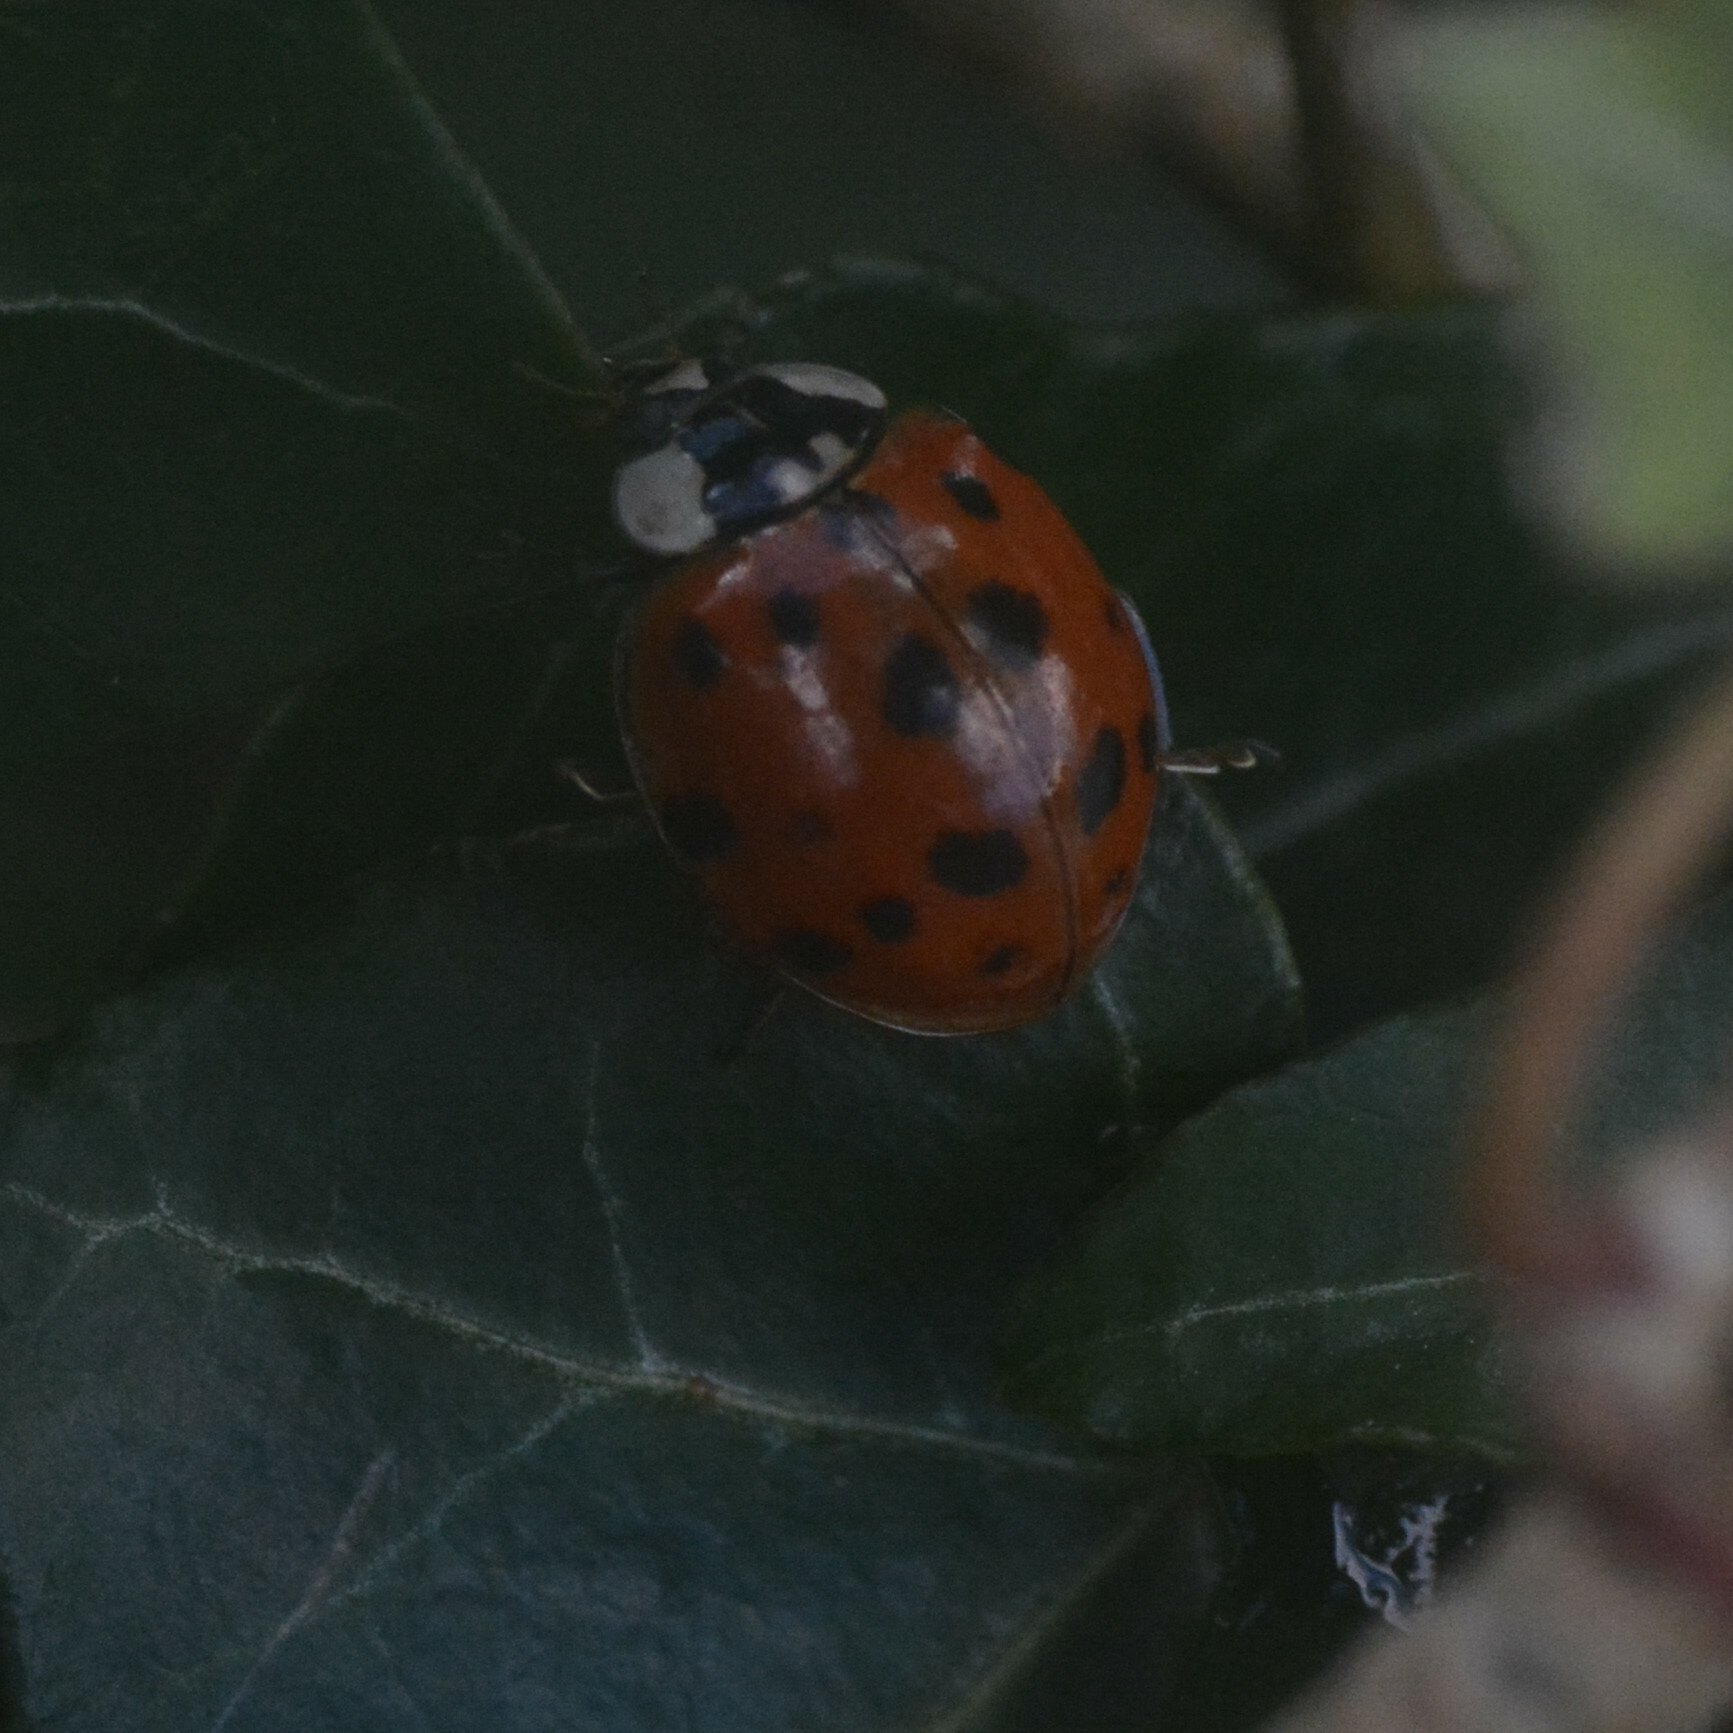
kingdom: Animalia
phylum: Arthropoda
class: Insecta
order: Coleoptera
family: Coccinellidae
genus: Harmonia
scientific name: Harmonia axyridis
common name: Harlequin ladybird
